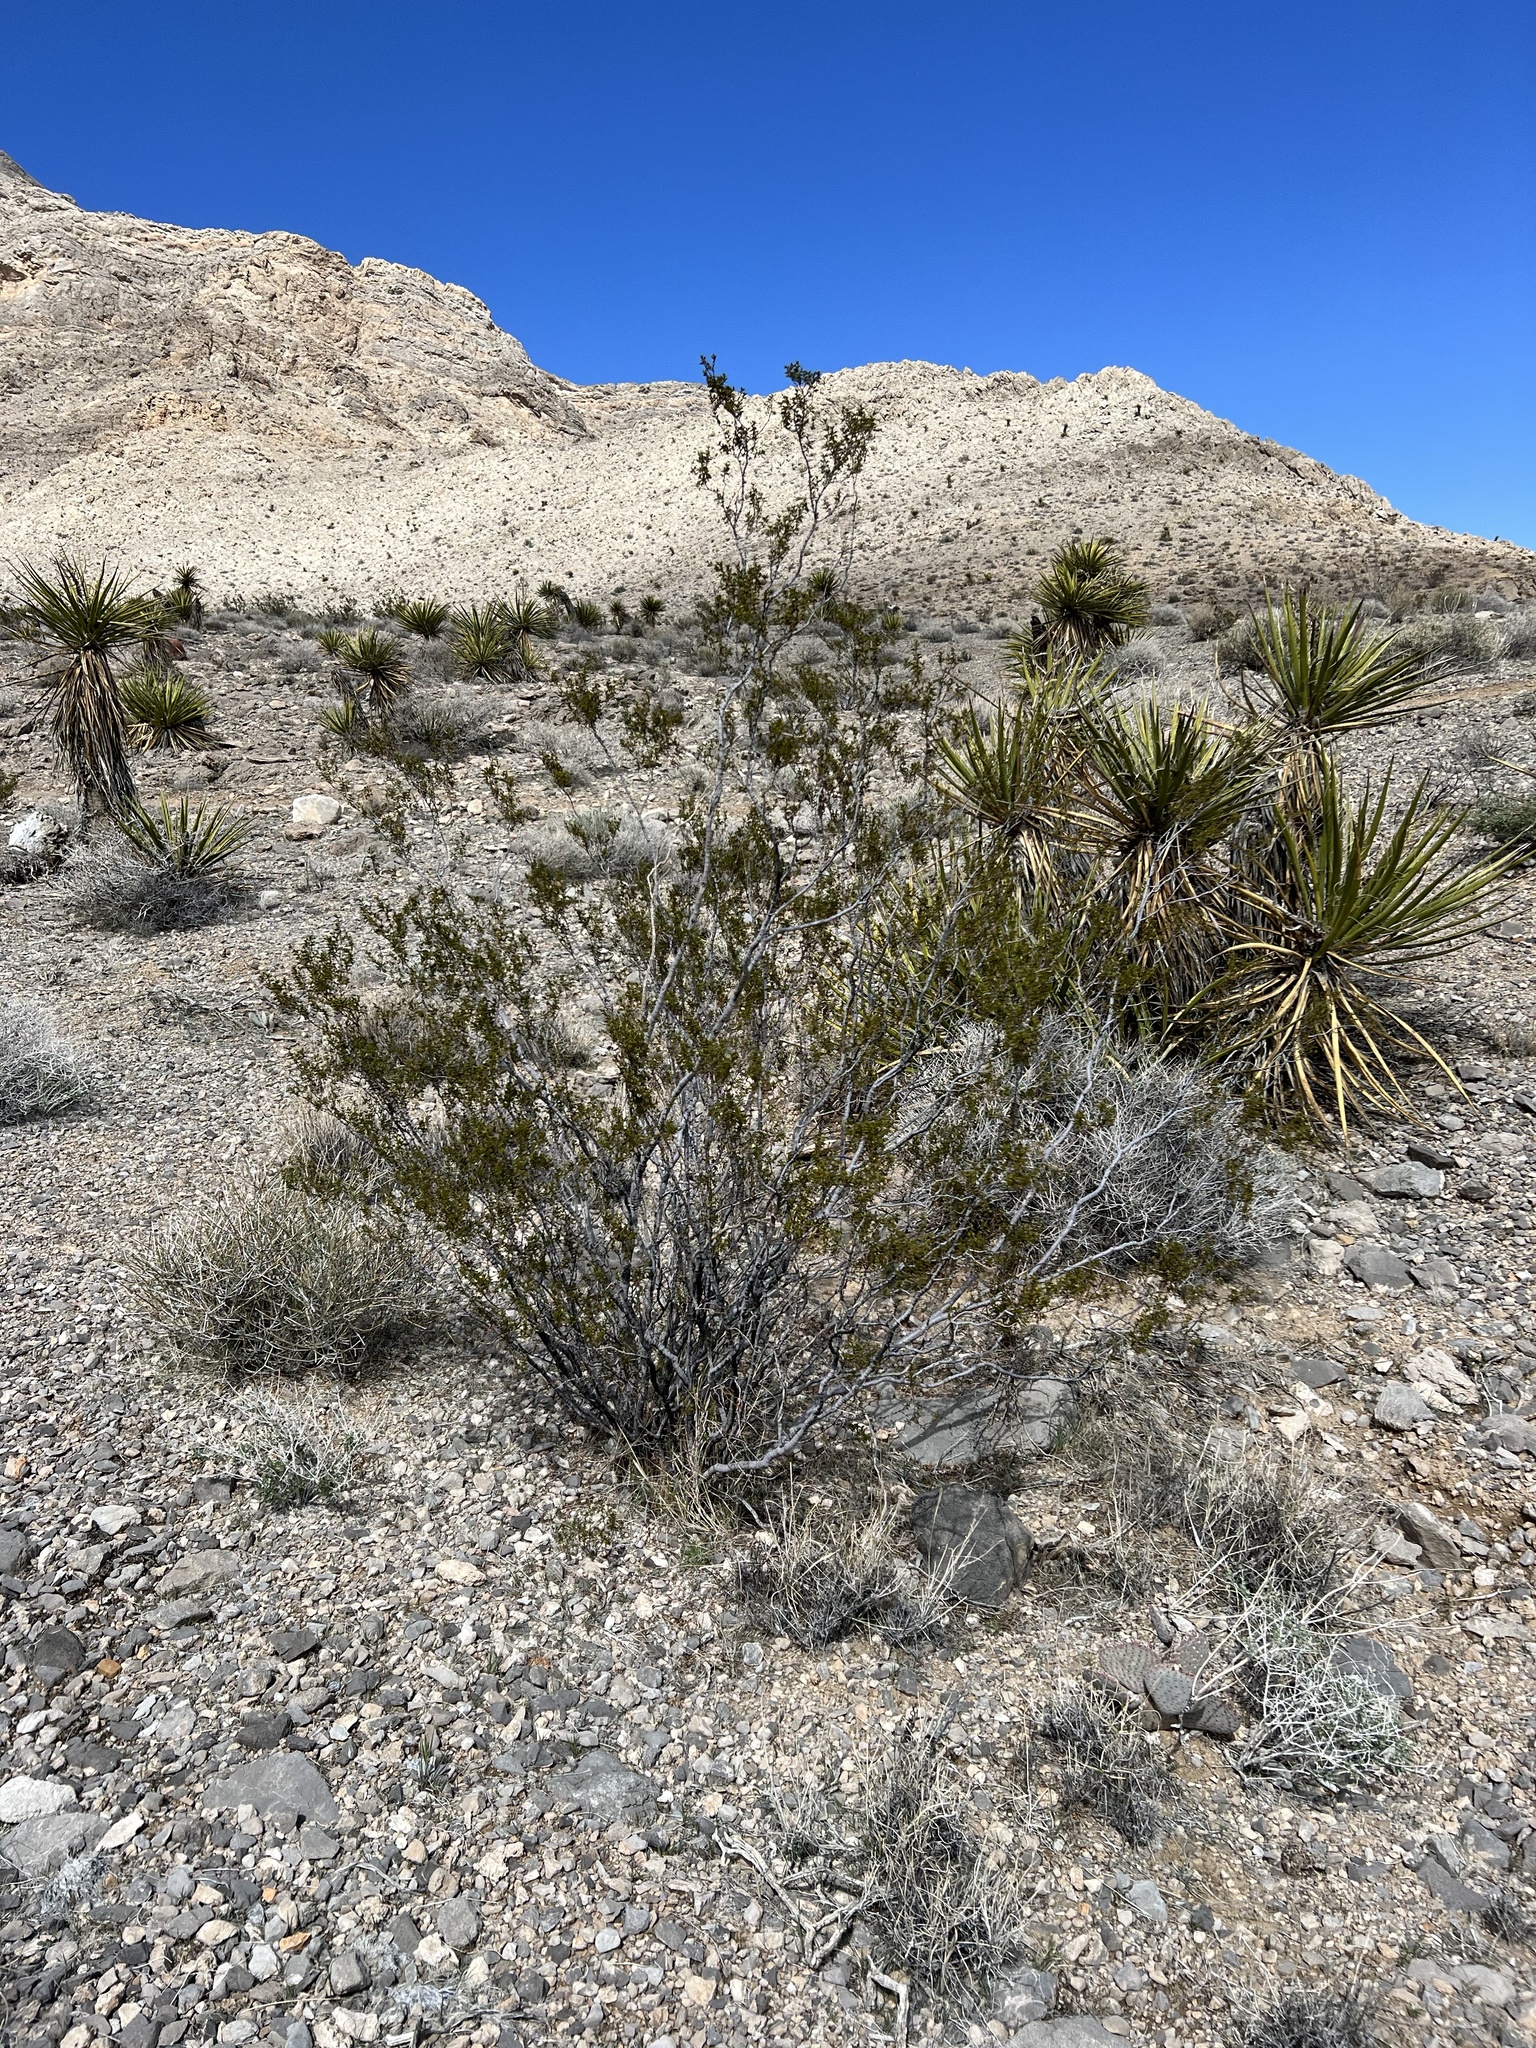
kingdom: Plantae
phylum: Tracheophyta
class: Magnoliopsida
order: Zygophyllales
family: Zygophyllaceae
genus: Larrea
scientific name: Larrea tridentata
